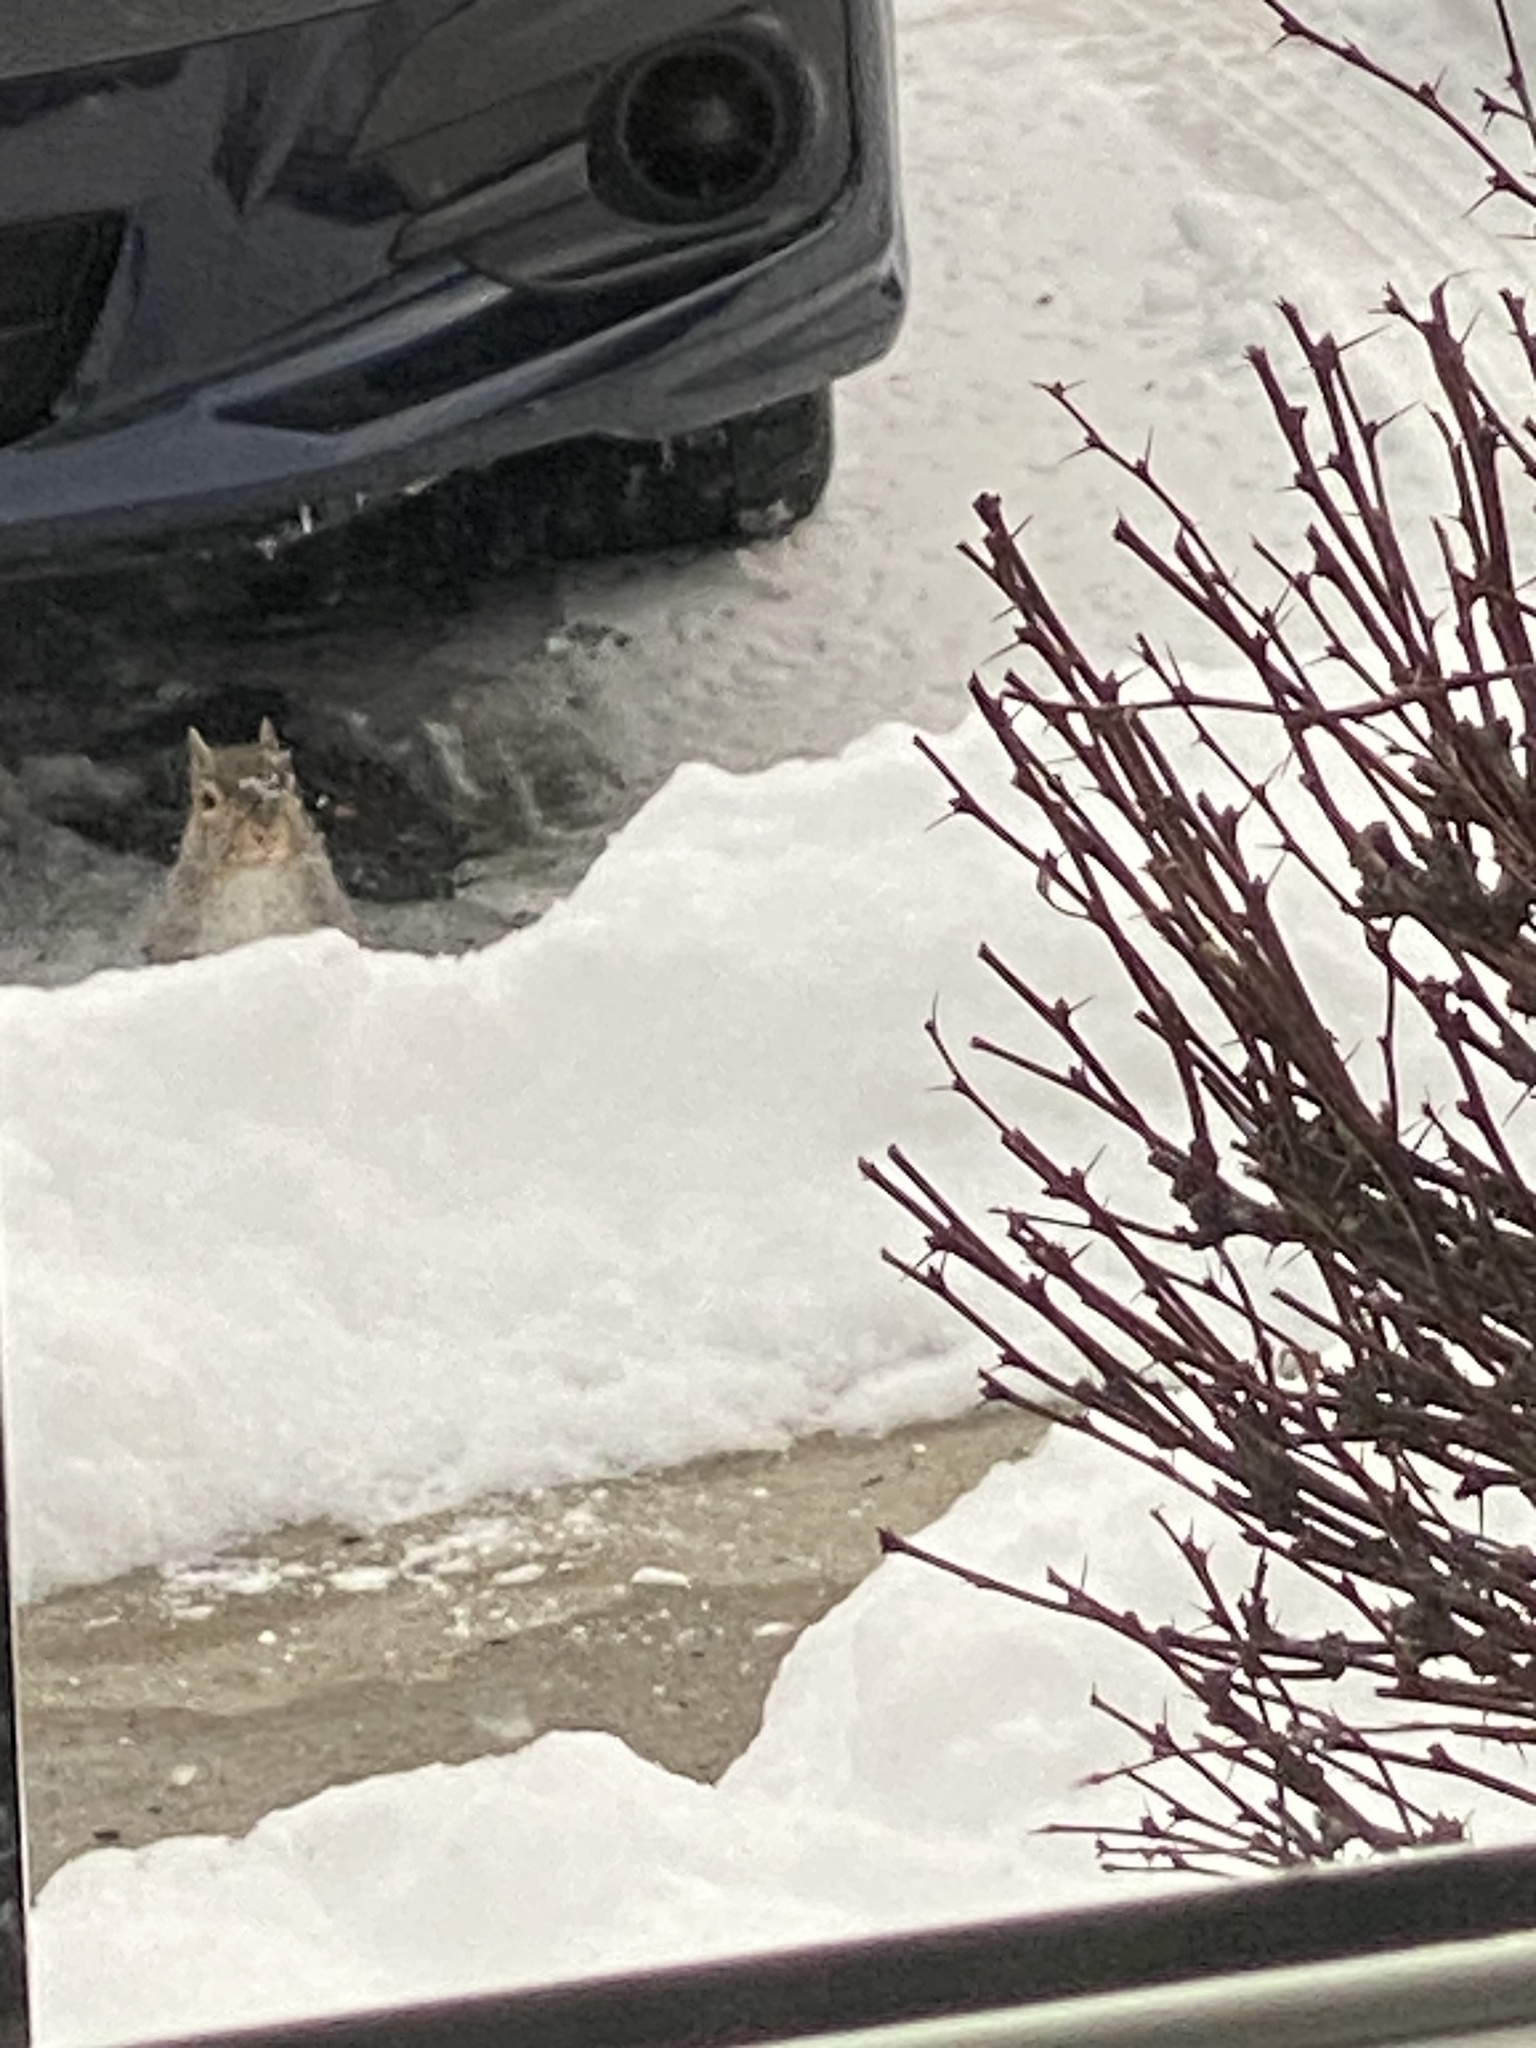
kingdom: Animalia
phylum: Chordata
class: Mammalia
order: Rodentia
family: Sciuridae
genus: Sciurus
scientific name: Sciurus carolinensis
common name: Eastern gray squirrel
